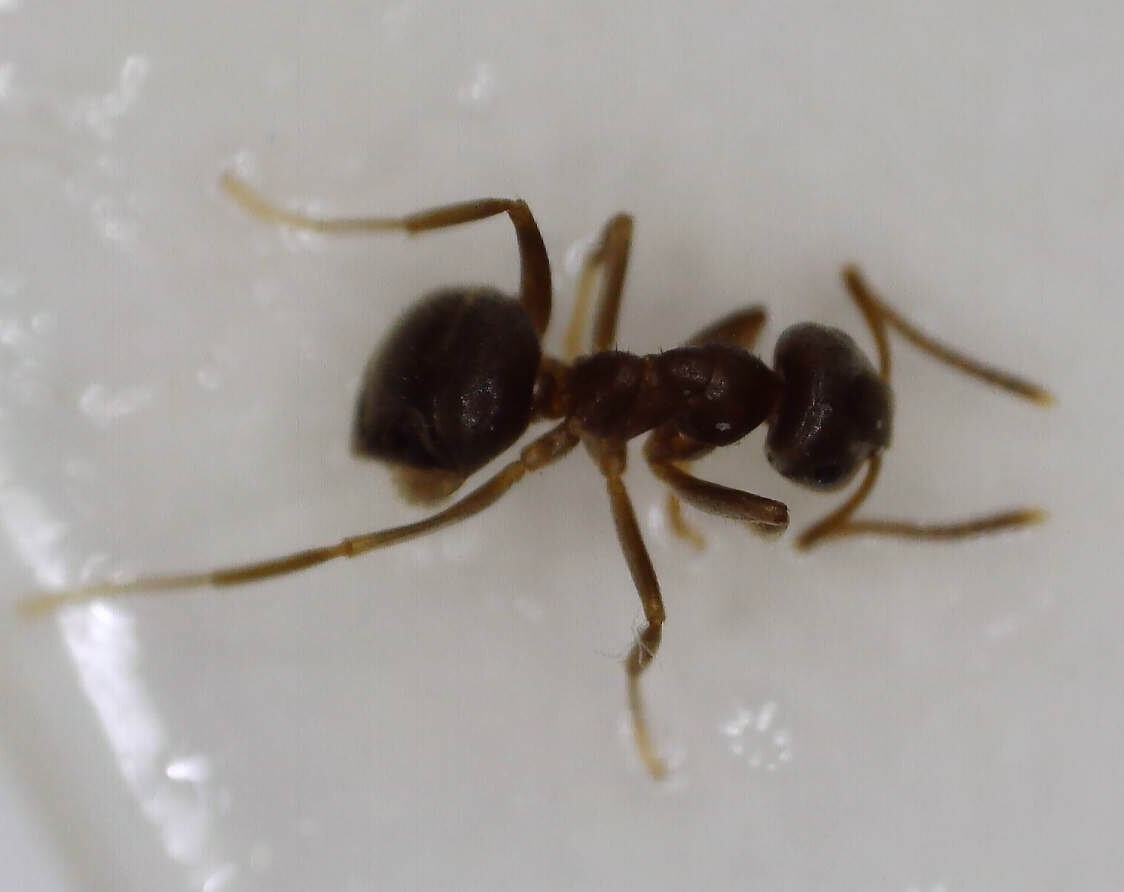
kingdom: Animalia
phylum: Arthropoda
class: Insecta
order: Hymenoptera
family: Formicidae
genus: Lasius
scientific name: Lasius
